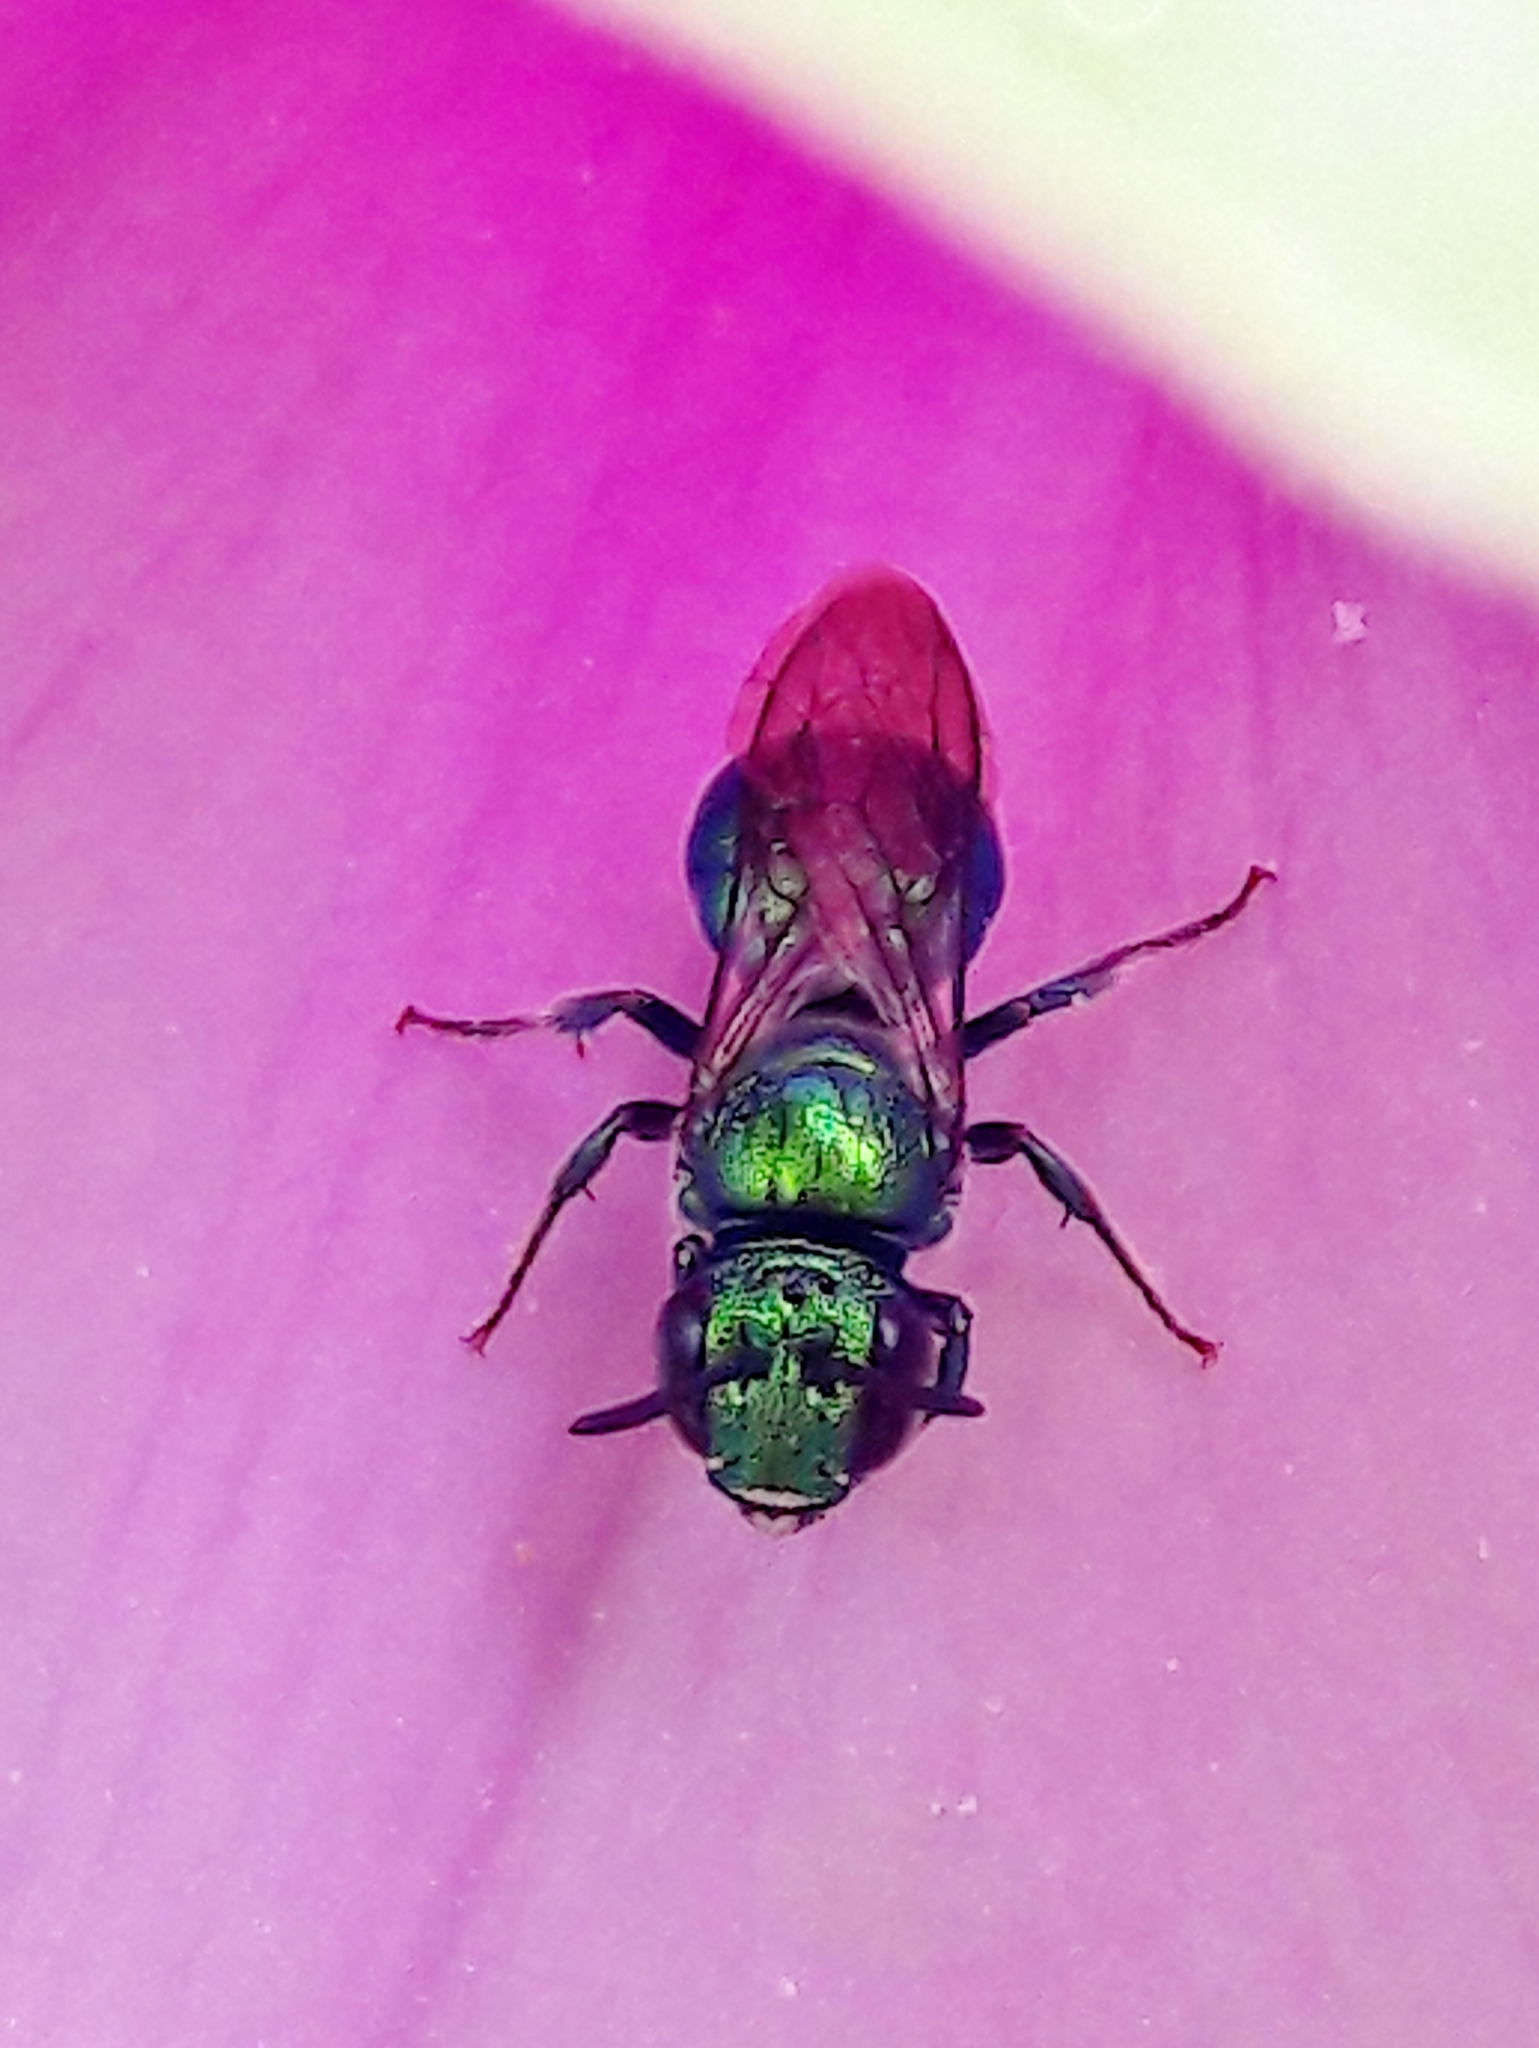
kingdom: Animalia
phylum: Arthropoda
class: Insecta
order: Hymenoptera
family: Apidae
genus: Ceratina
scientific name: Ceratina chloris
